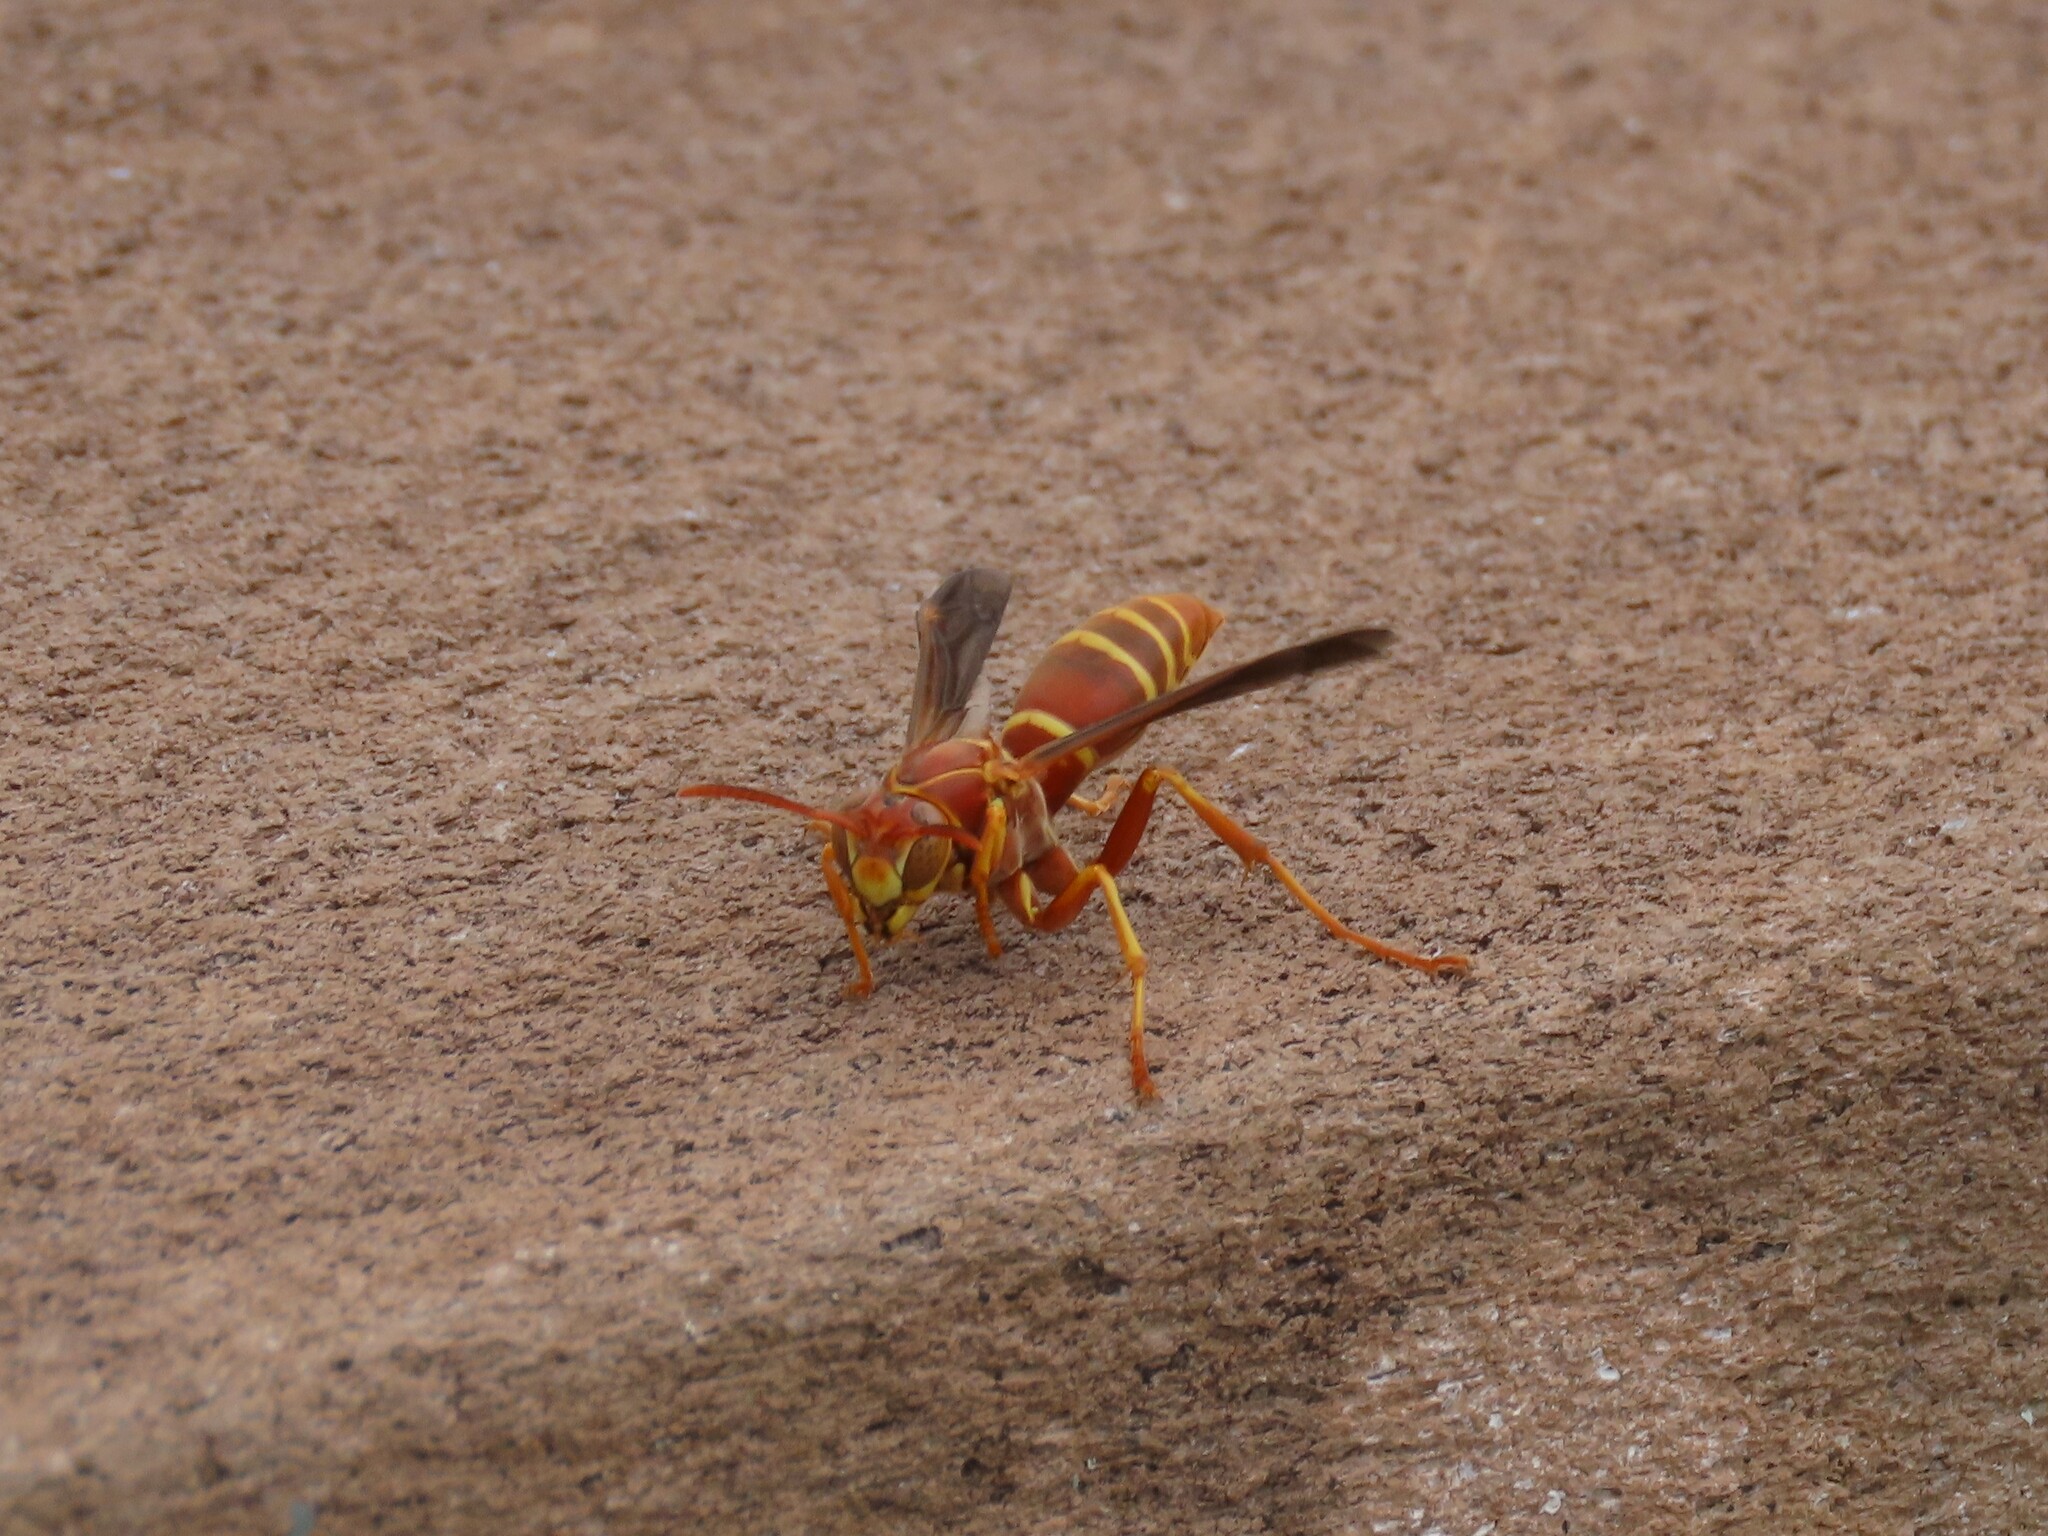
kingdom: Animalia
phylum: Arthropoda
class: Insecta
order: Hymenoptera
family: Eumenidae
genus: Polistes
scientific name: Polistes bellicosus
